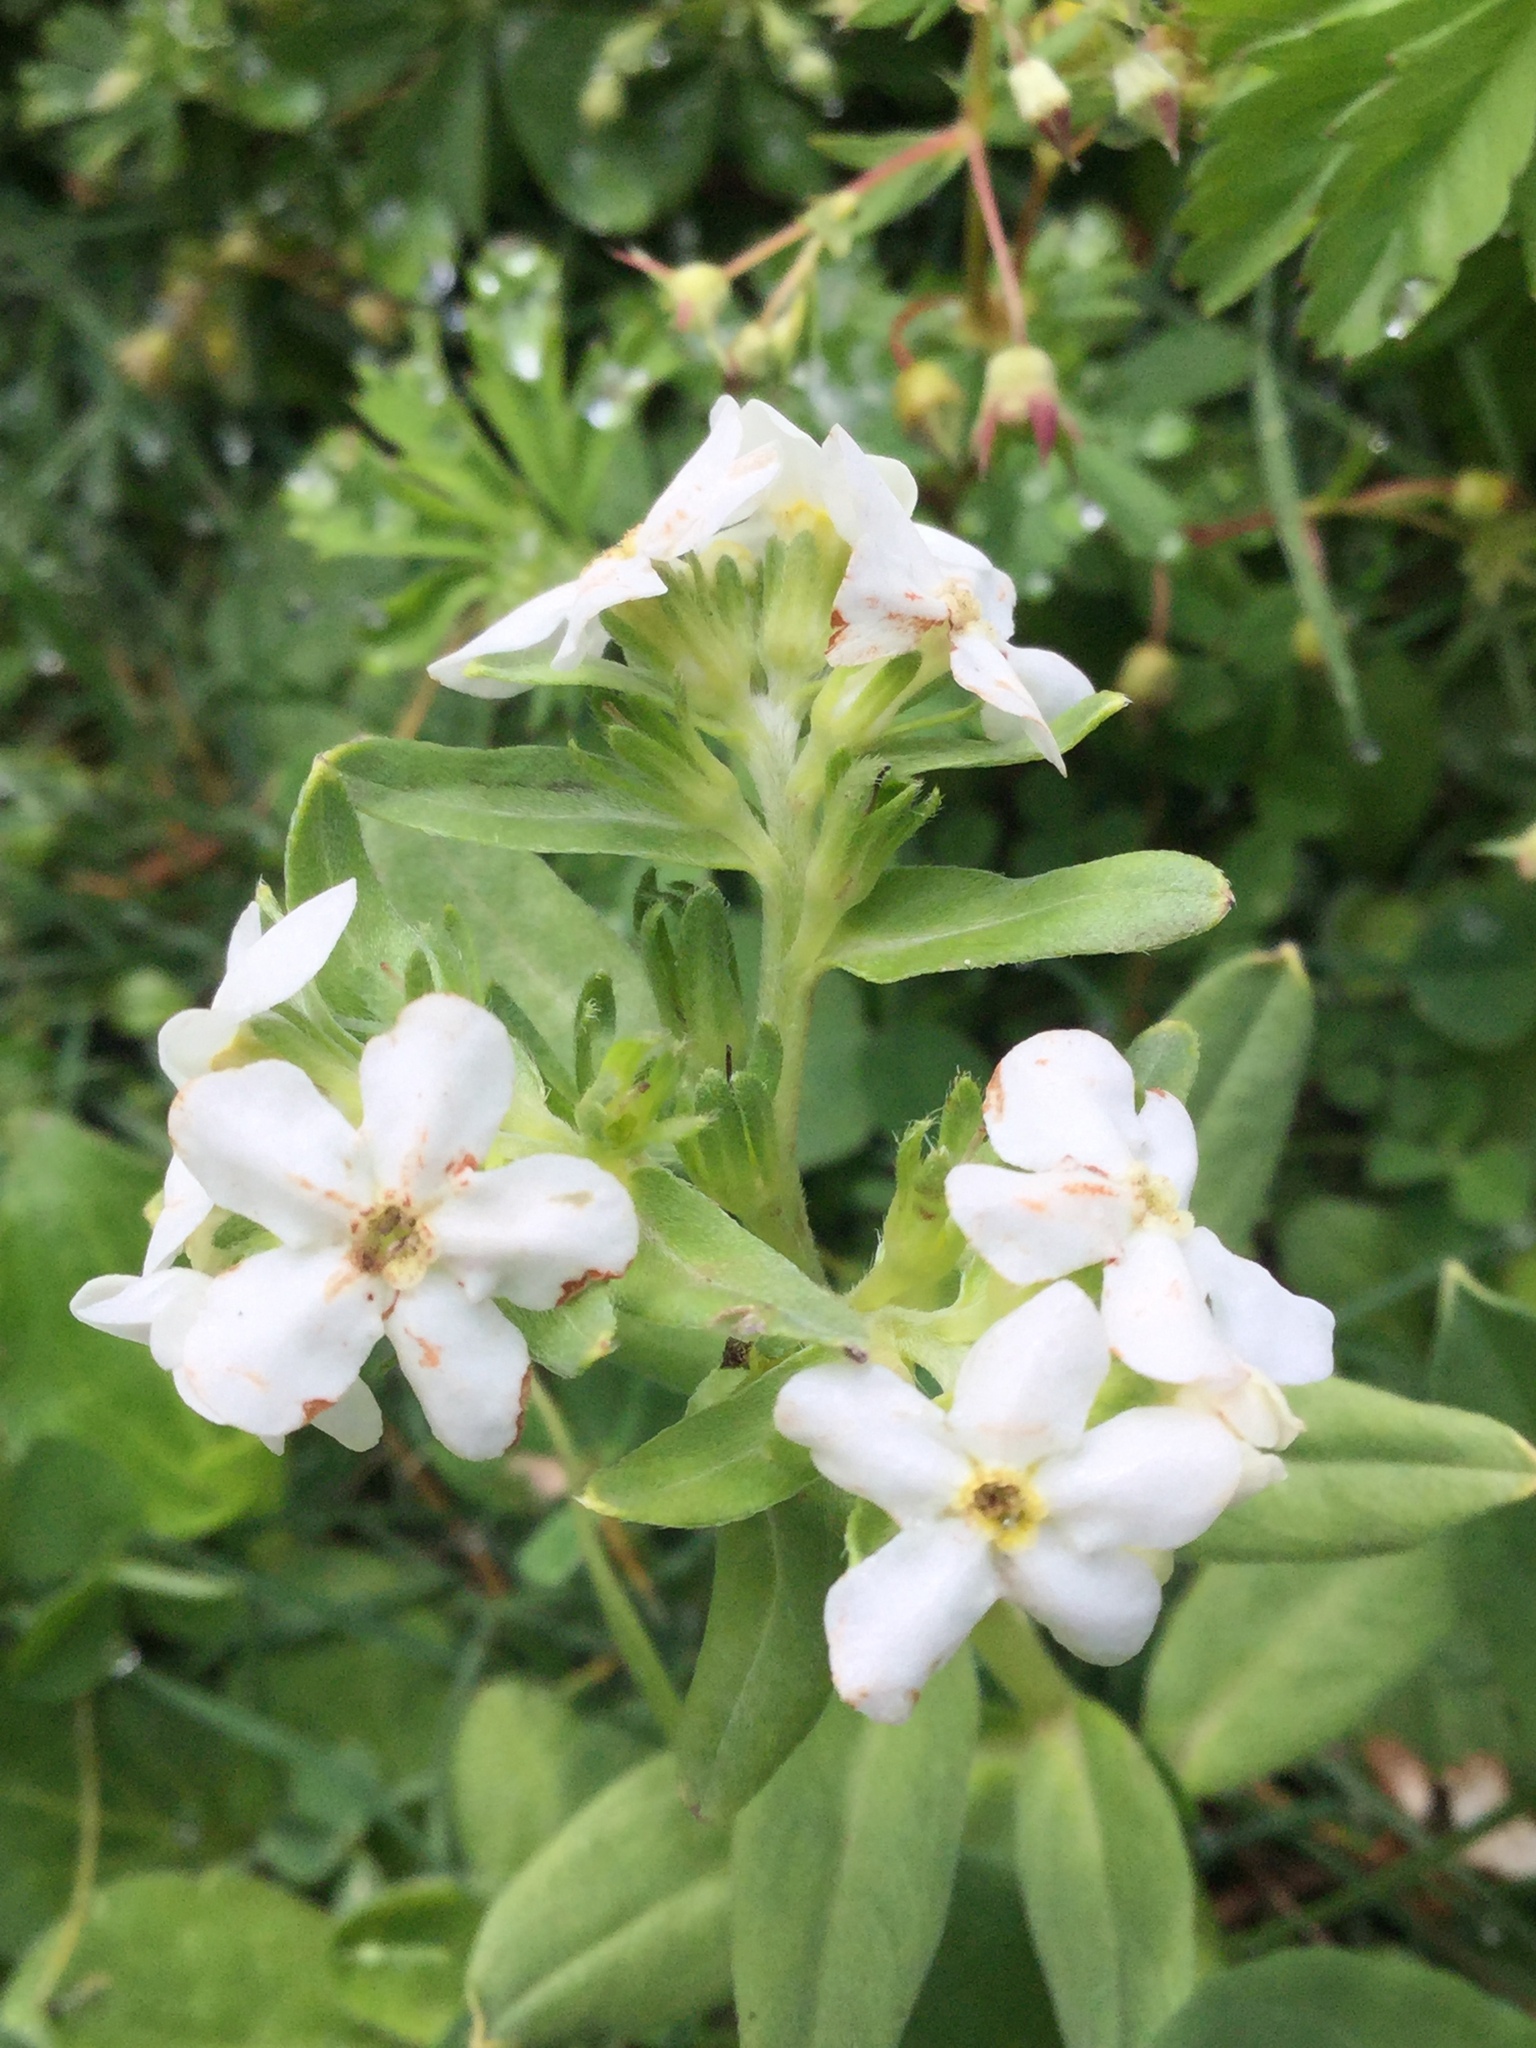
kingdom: Plantae
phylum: Tracheophyta
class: Magnoliopsida
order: Boraginales
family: Boraginaceae
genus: Lithospermum
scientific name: Lithospermum distichum
